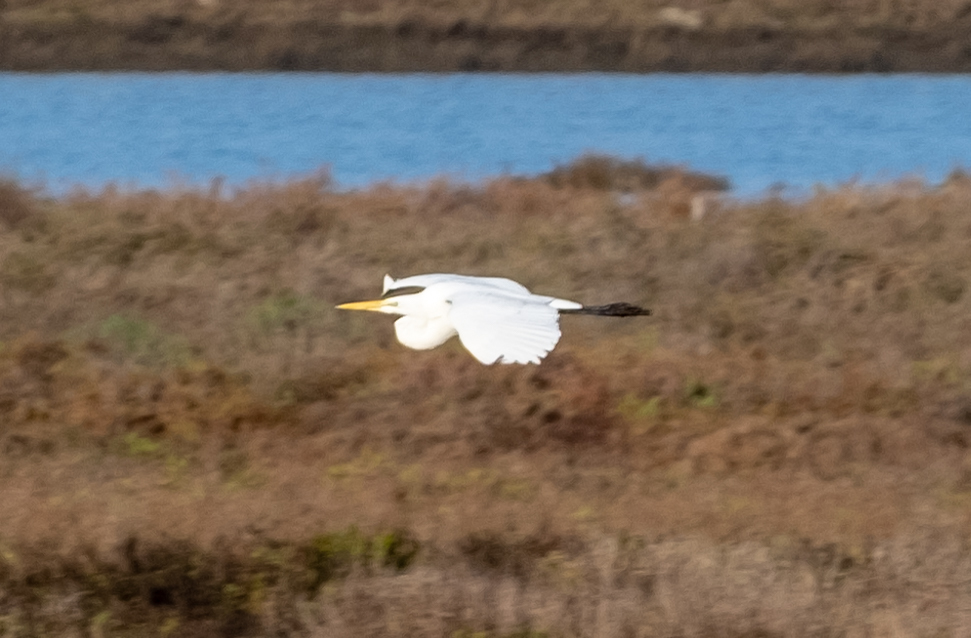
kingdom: Animalia
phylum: Chordata
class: Aves
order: Pelecaniformes
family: Ardeidae
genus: Ardea
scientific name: Ardea alba
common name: Great egret
